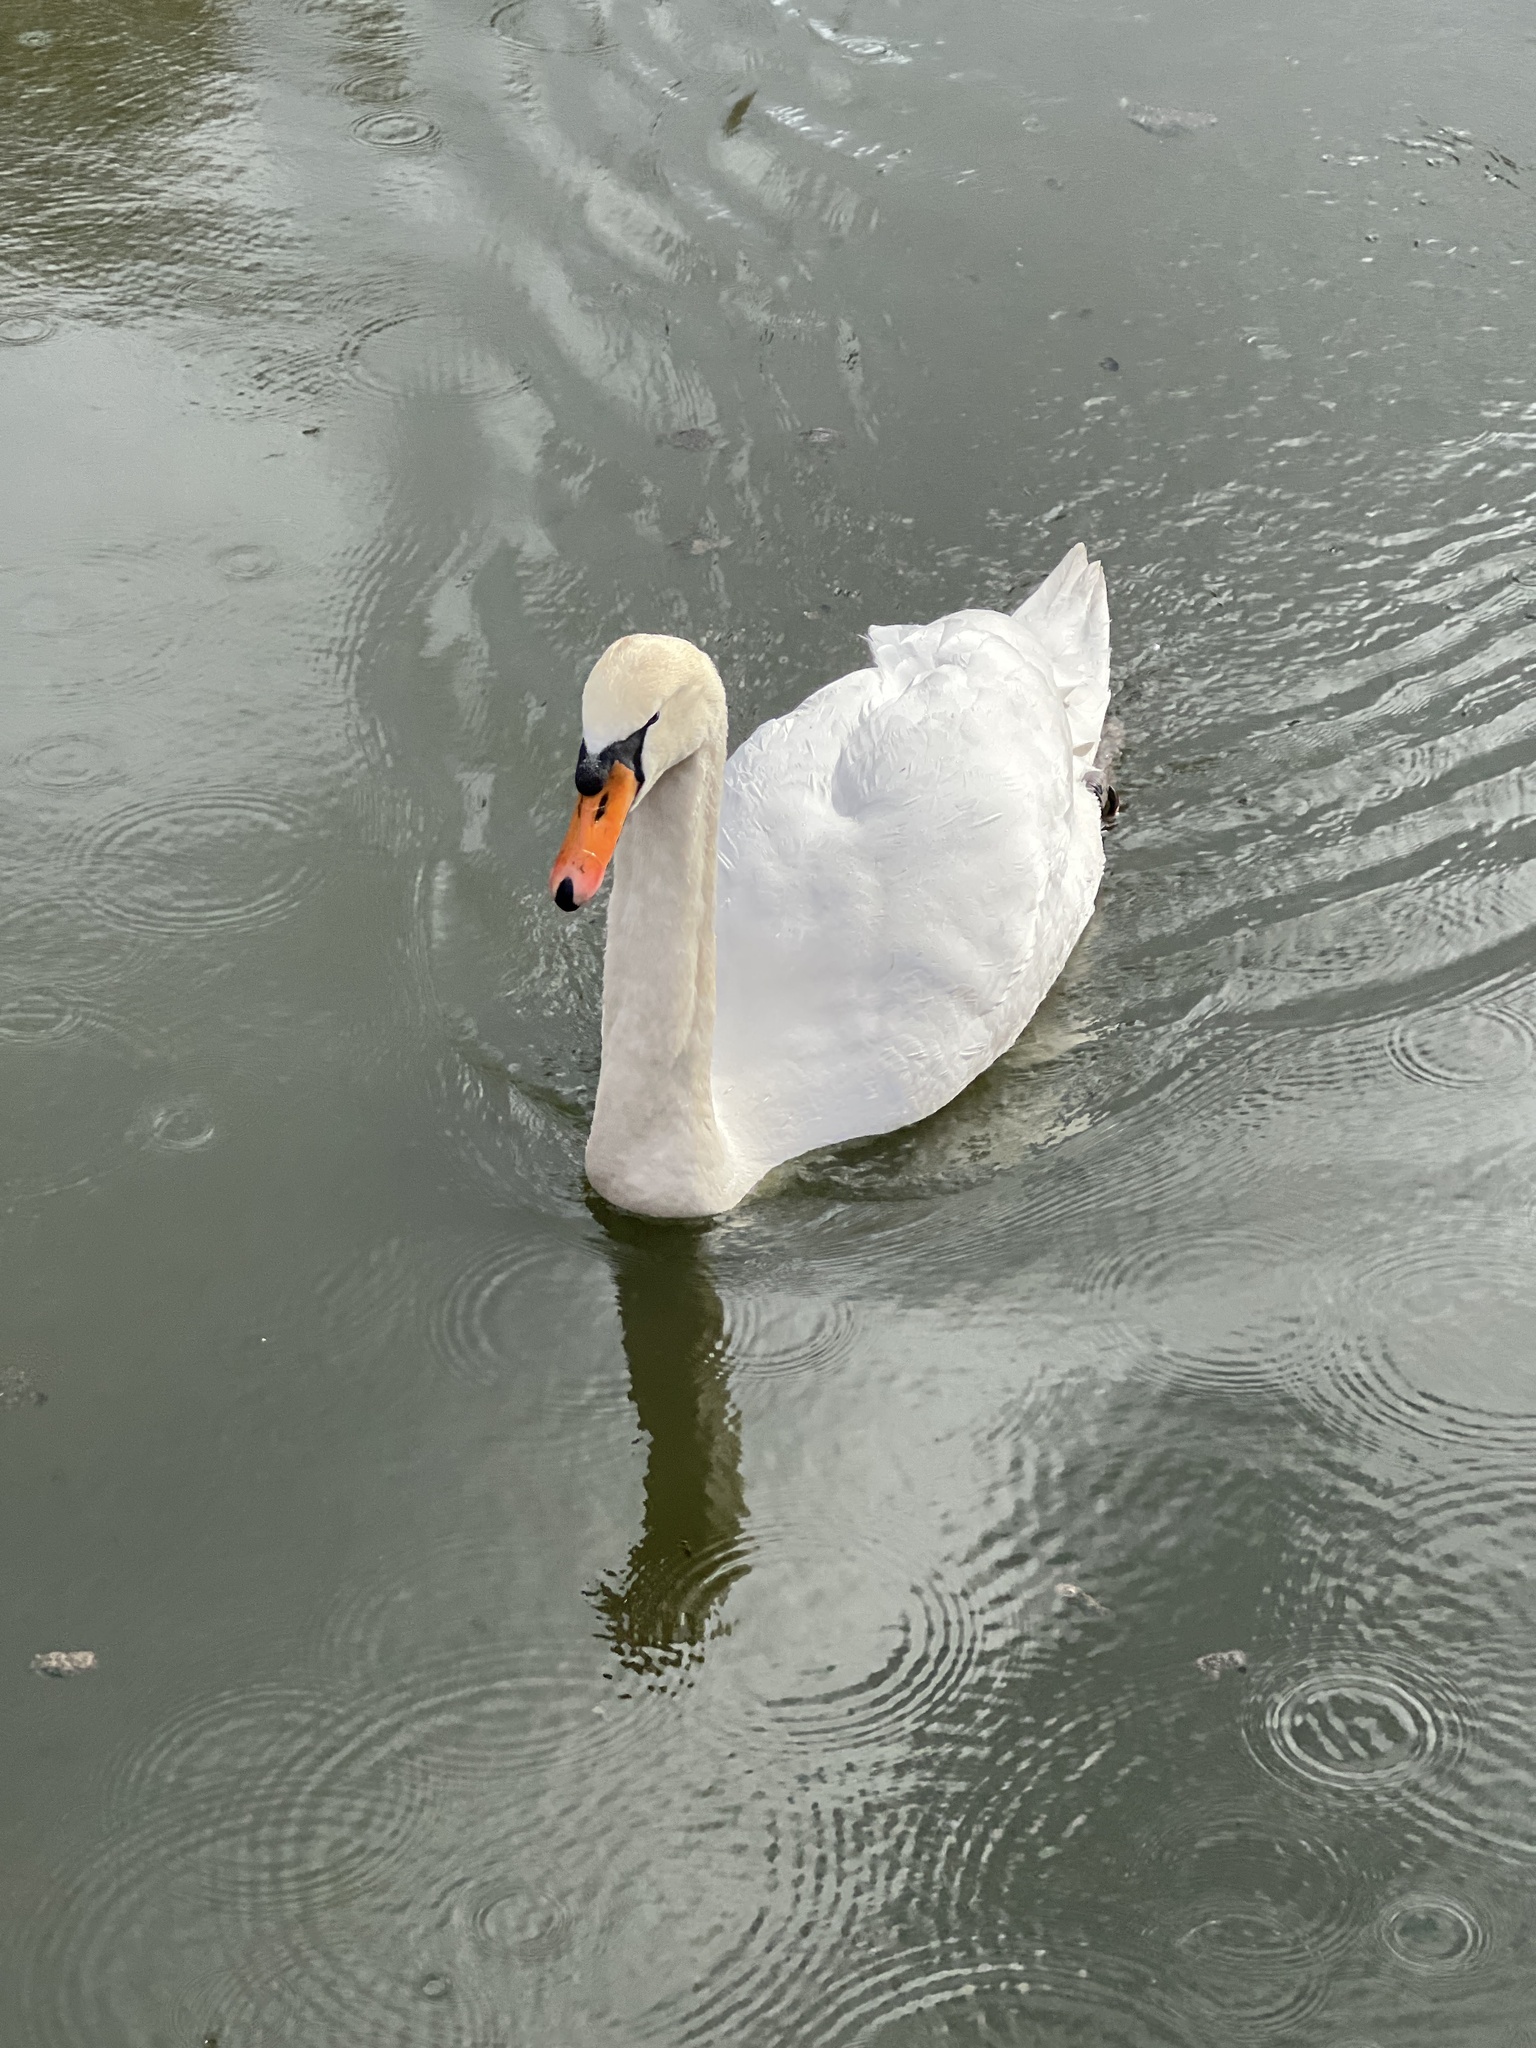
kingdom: Animalia
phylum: Chordata
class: Aves
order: Anseriformes
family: Anatidae
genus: Cygnus
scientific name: Cygnus olor
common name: Mute swan
